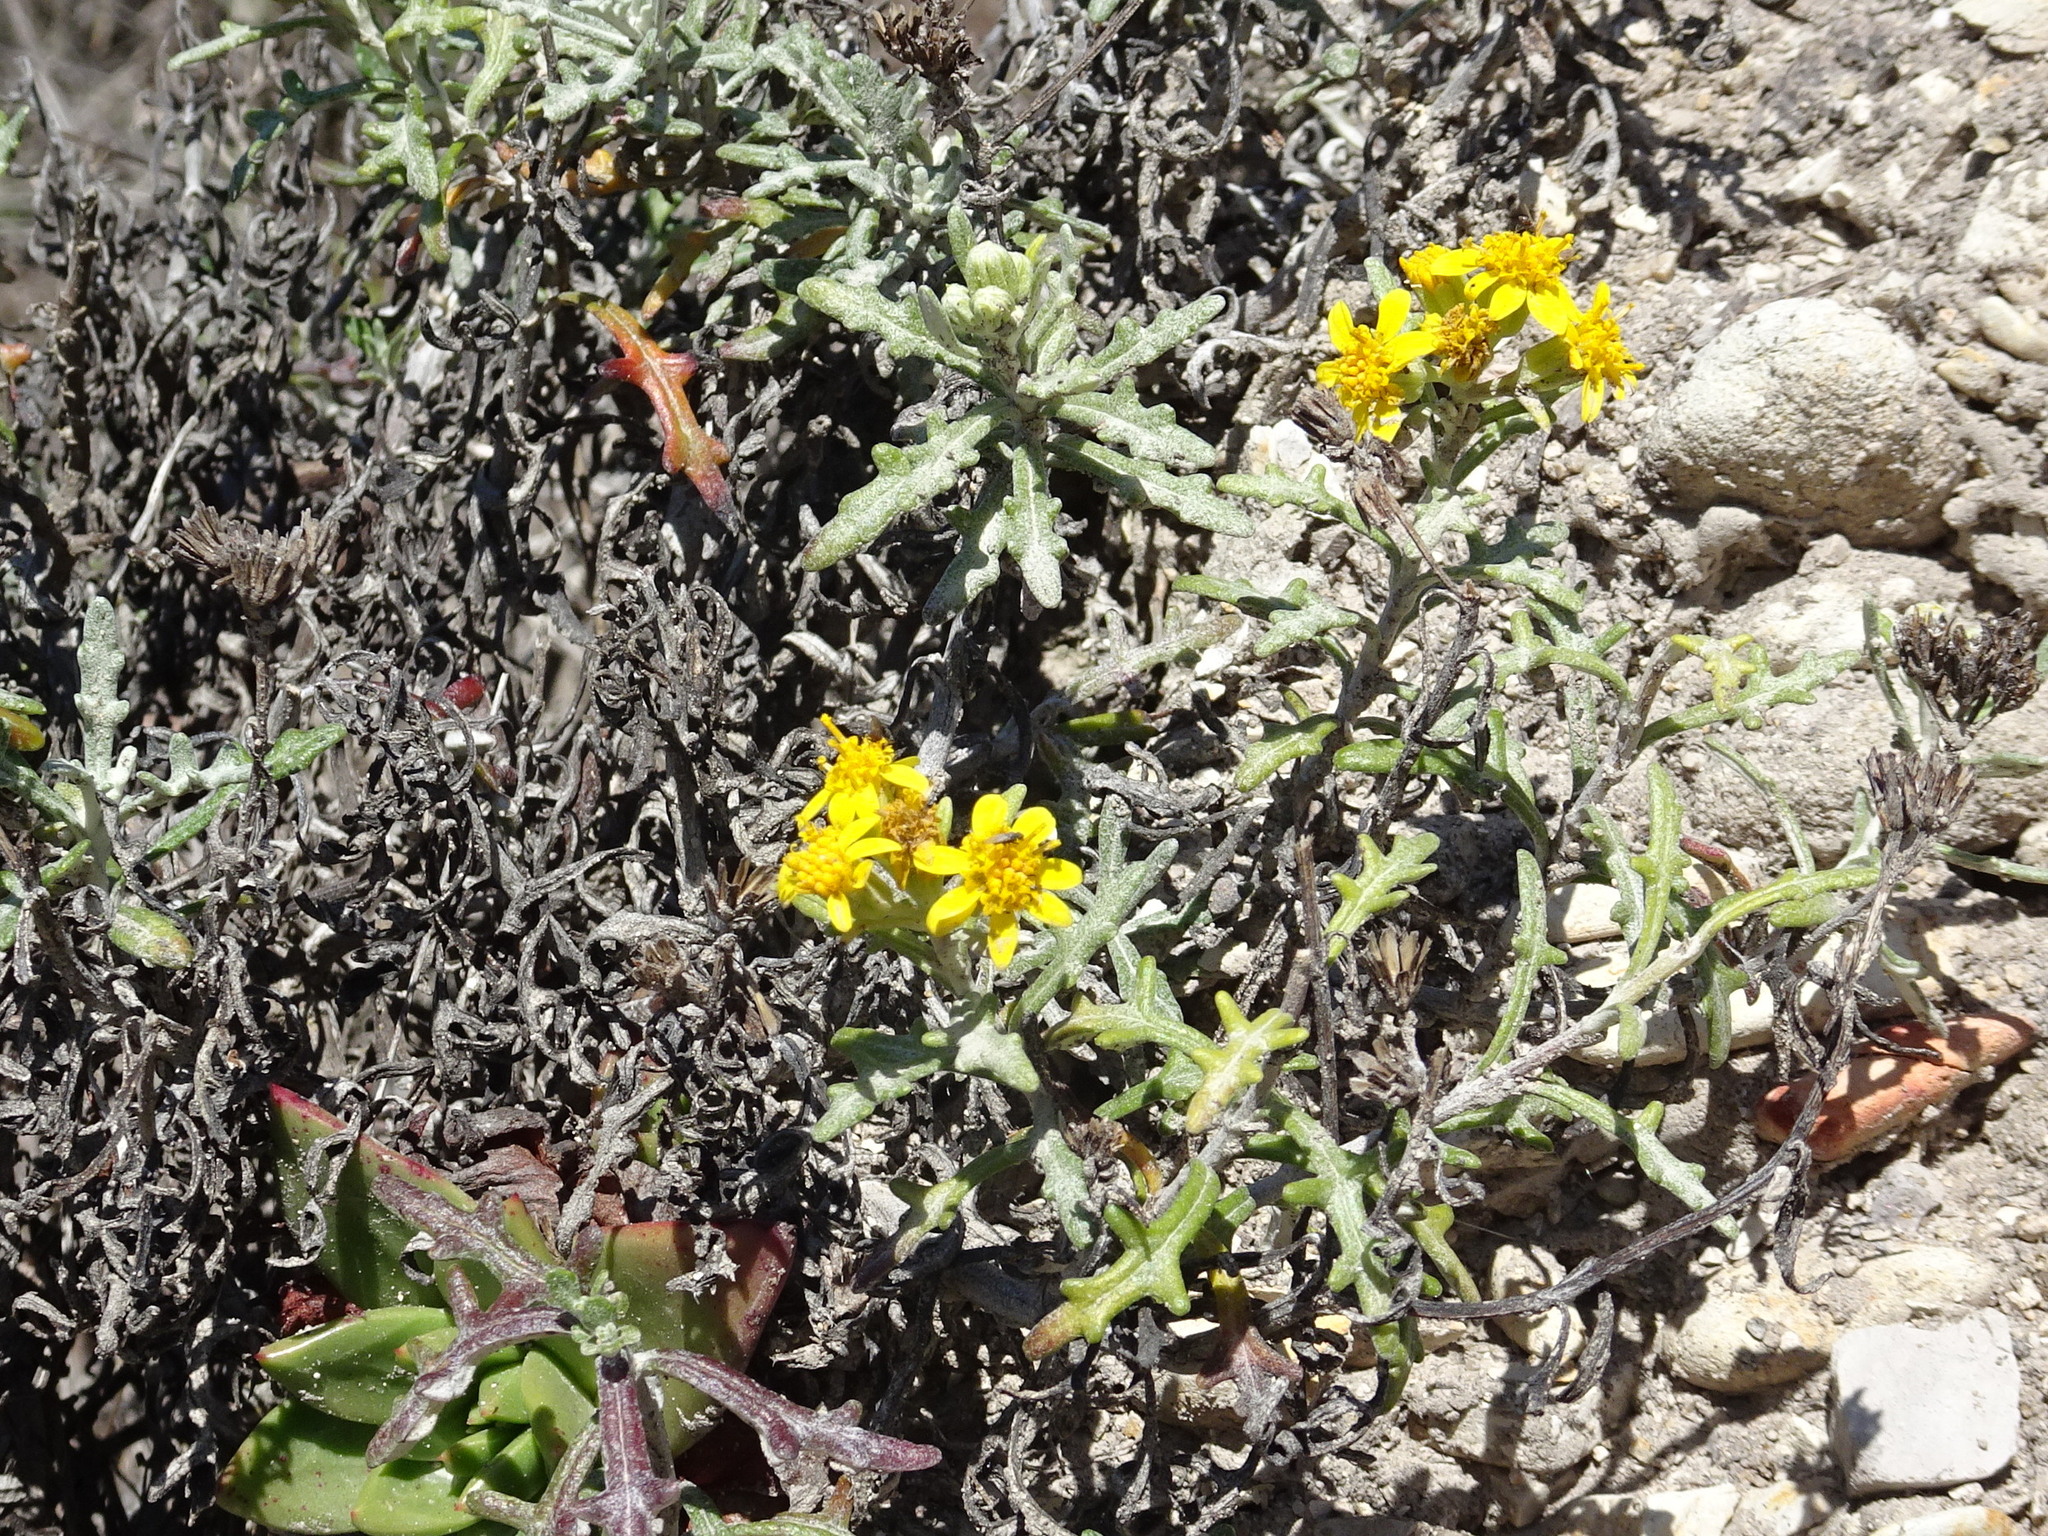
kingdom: Plantae
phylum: Tracheophyta
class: Magnoliopsida
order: Asterales
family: Asteraceae
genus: Eriophyllum
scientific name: Eriophyllum staechadifolium
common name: Lizardtail
